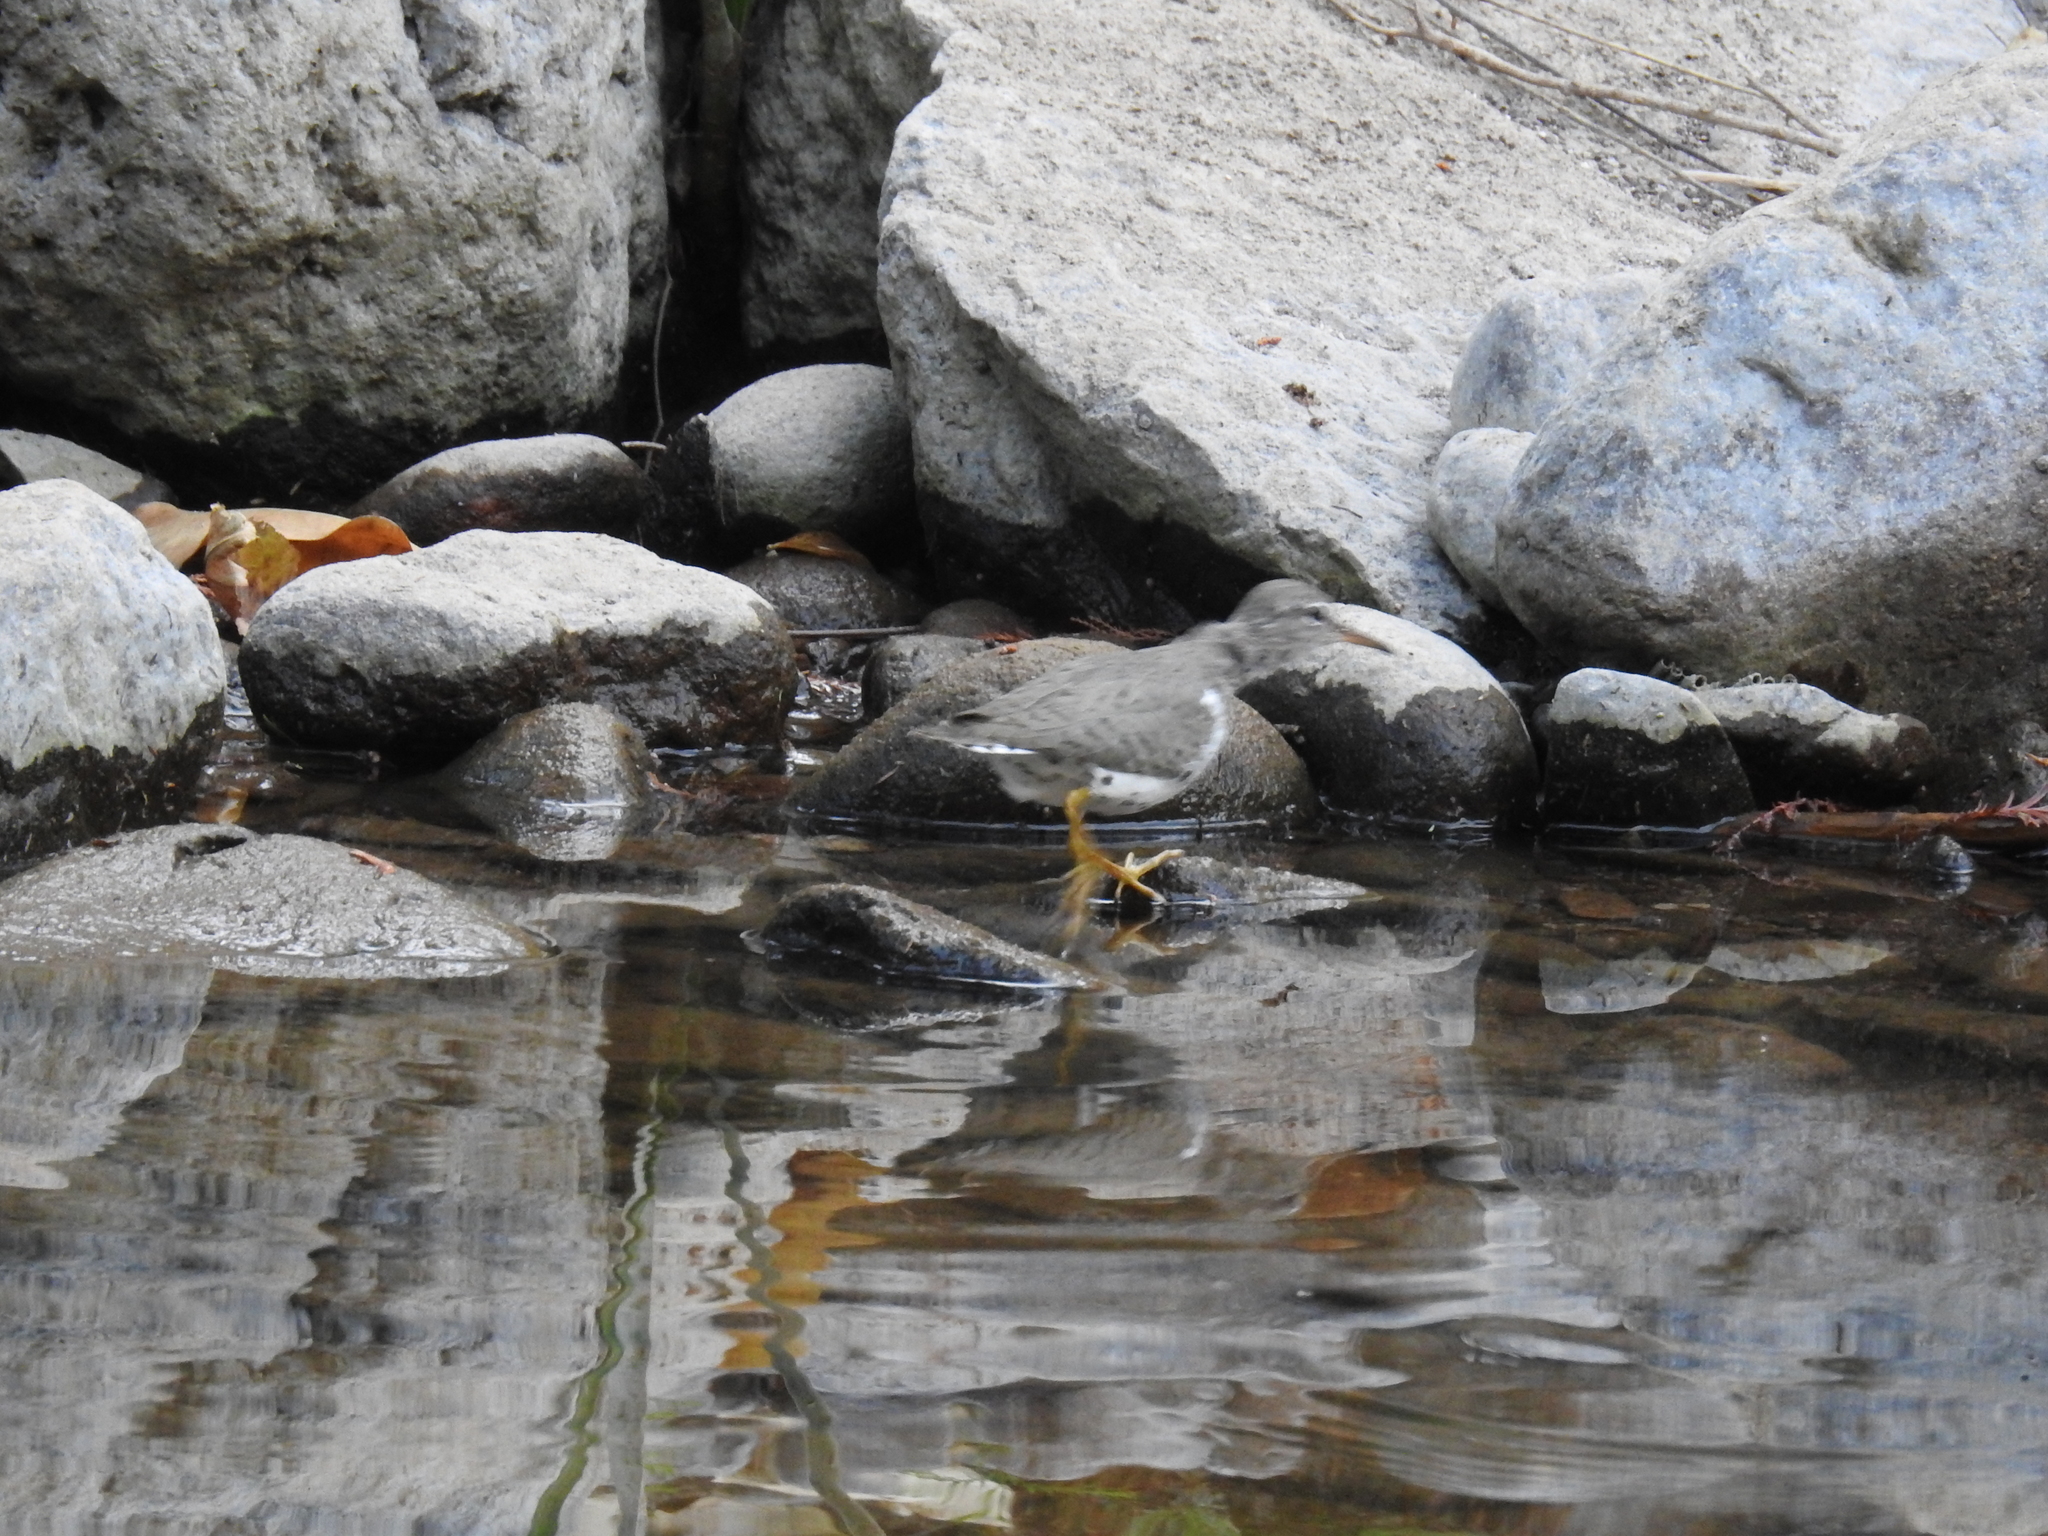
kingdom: Animalia
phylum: Chordata
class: Aves
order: Charadriiformes
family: Scolopacidae
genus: Actitis
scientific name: Actitis macularius
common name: Spotted sandpiper
